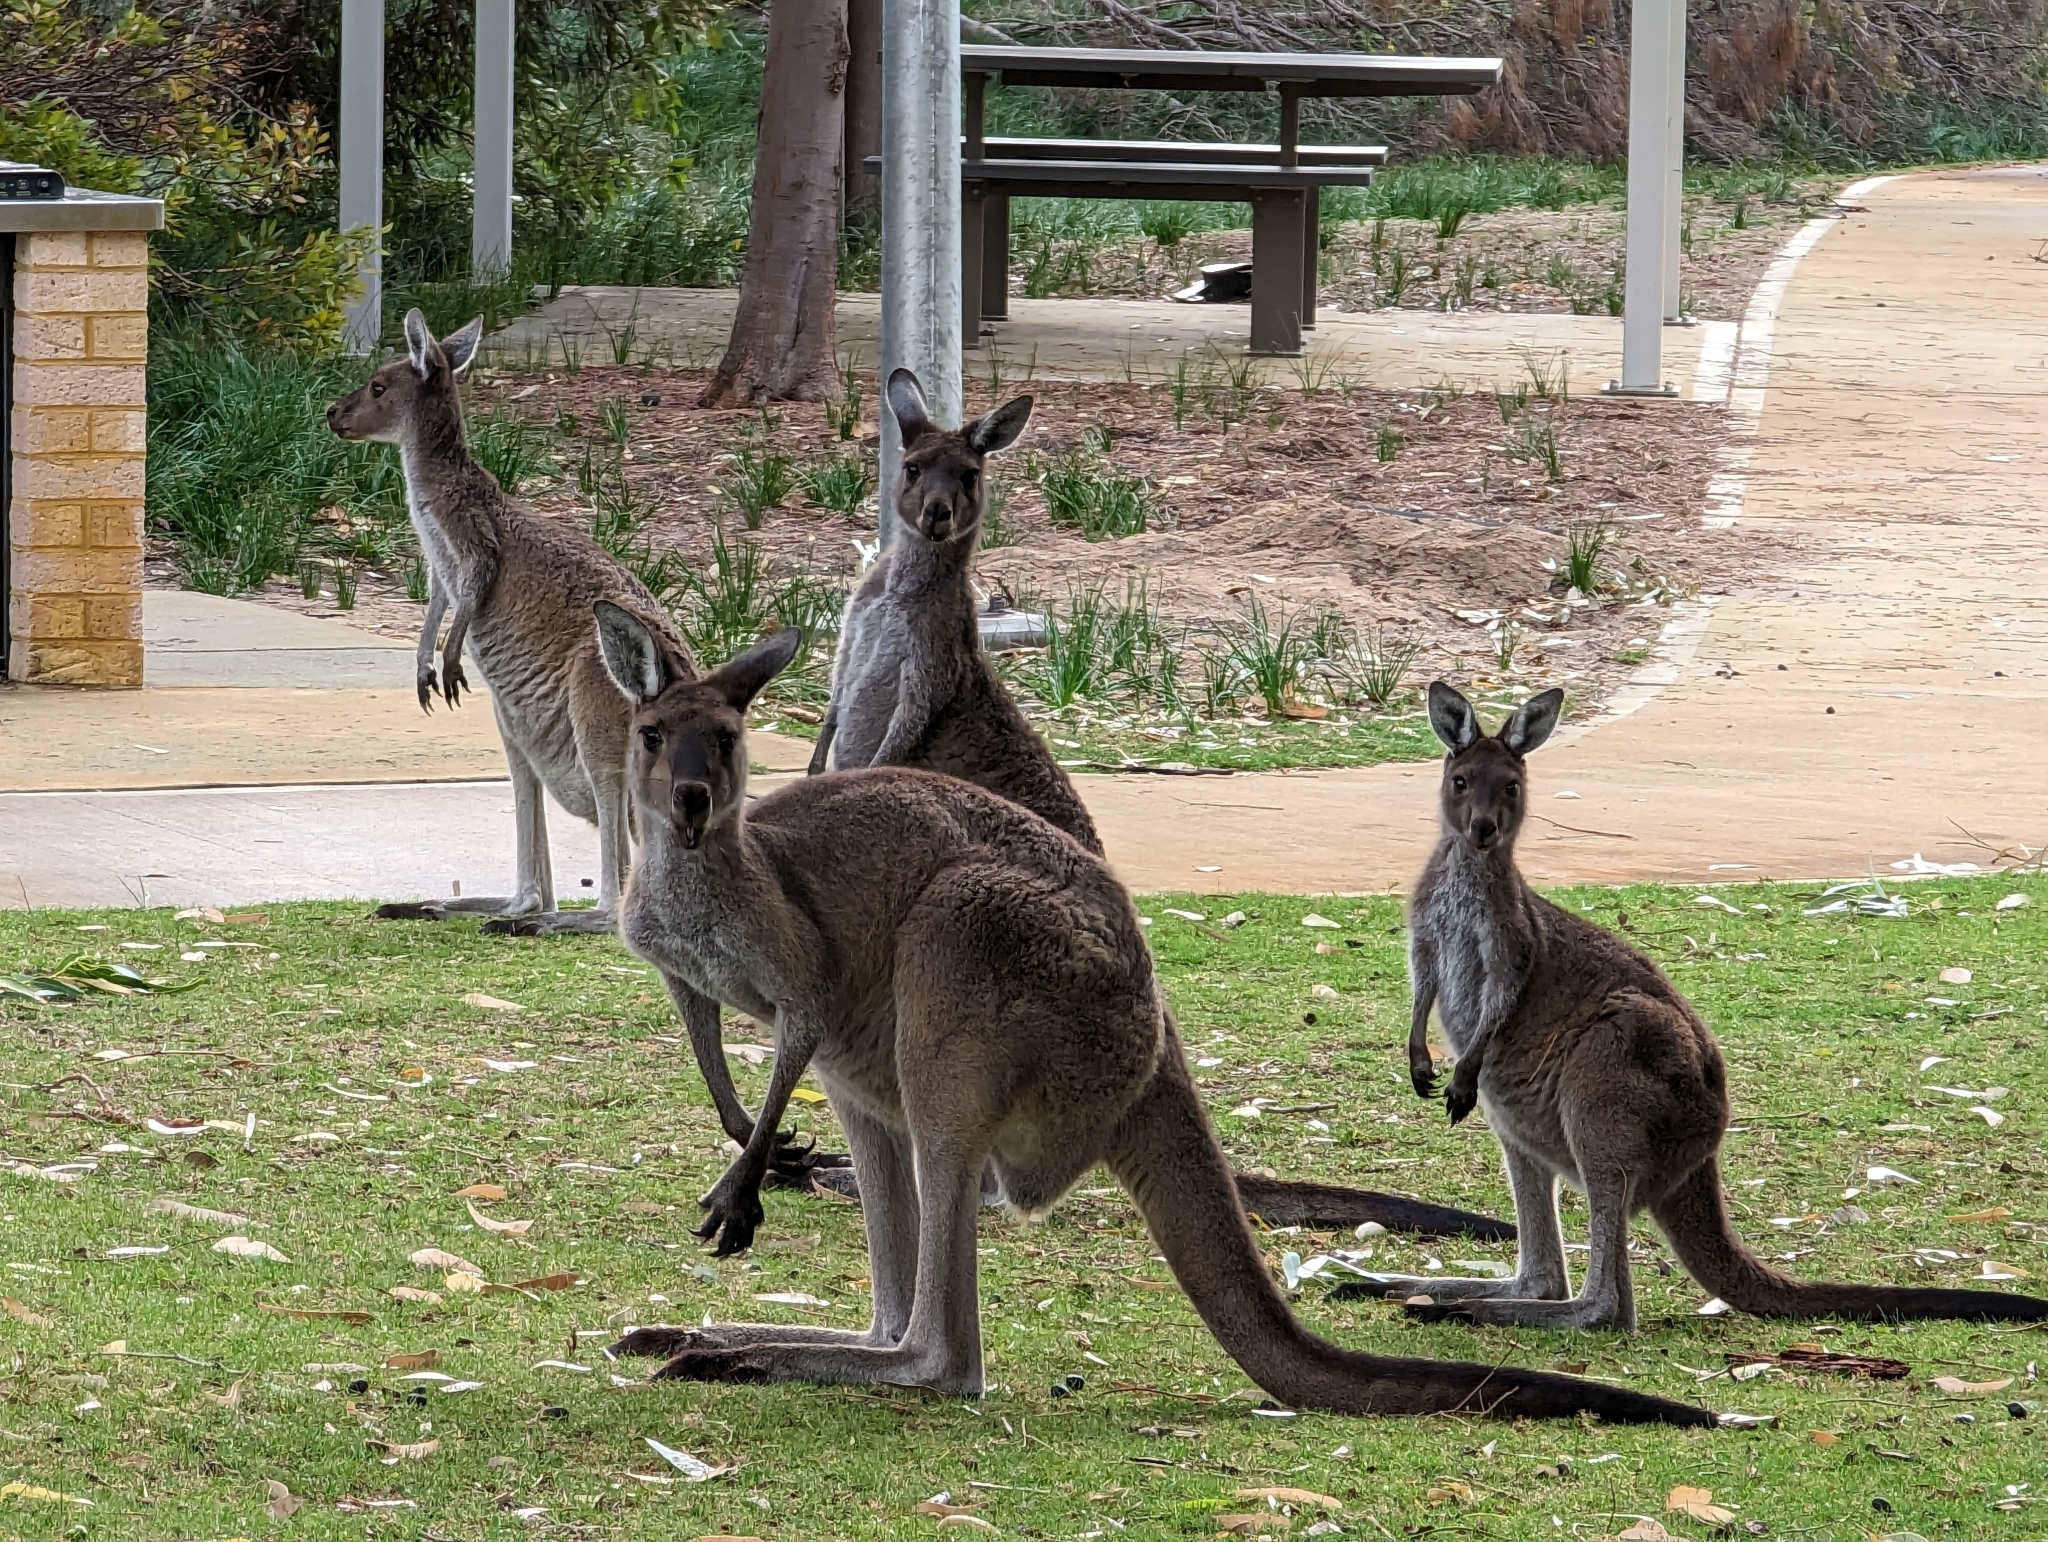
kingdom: Animalia
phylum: Chordata
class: Mammalia
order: Diprotodontia
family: Macropodidae
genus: Macropus
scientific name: Macropus fuliginosus
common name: Western grey kangaroo
